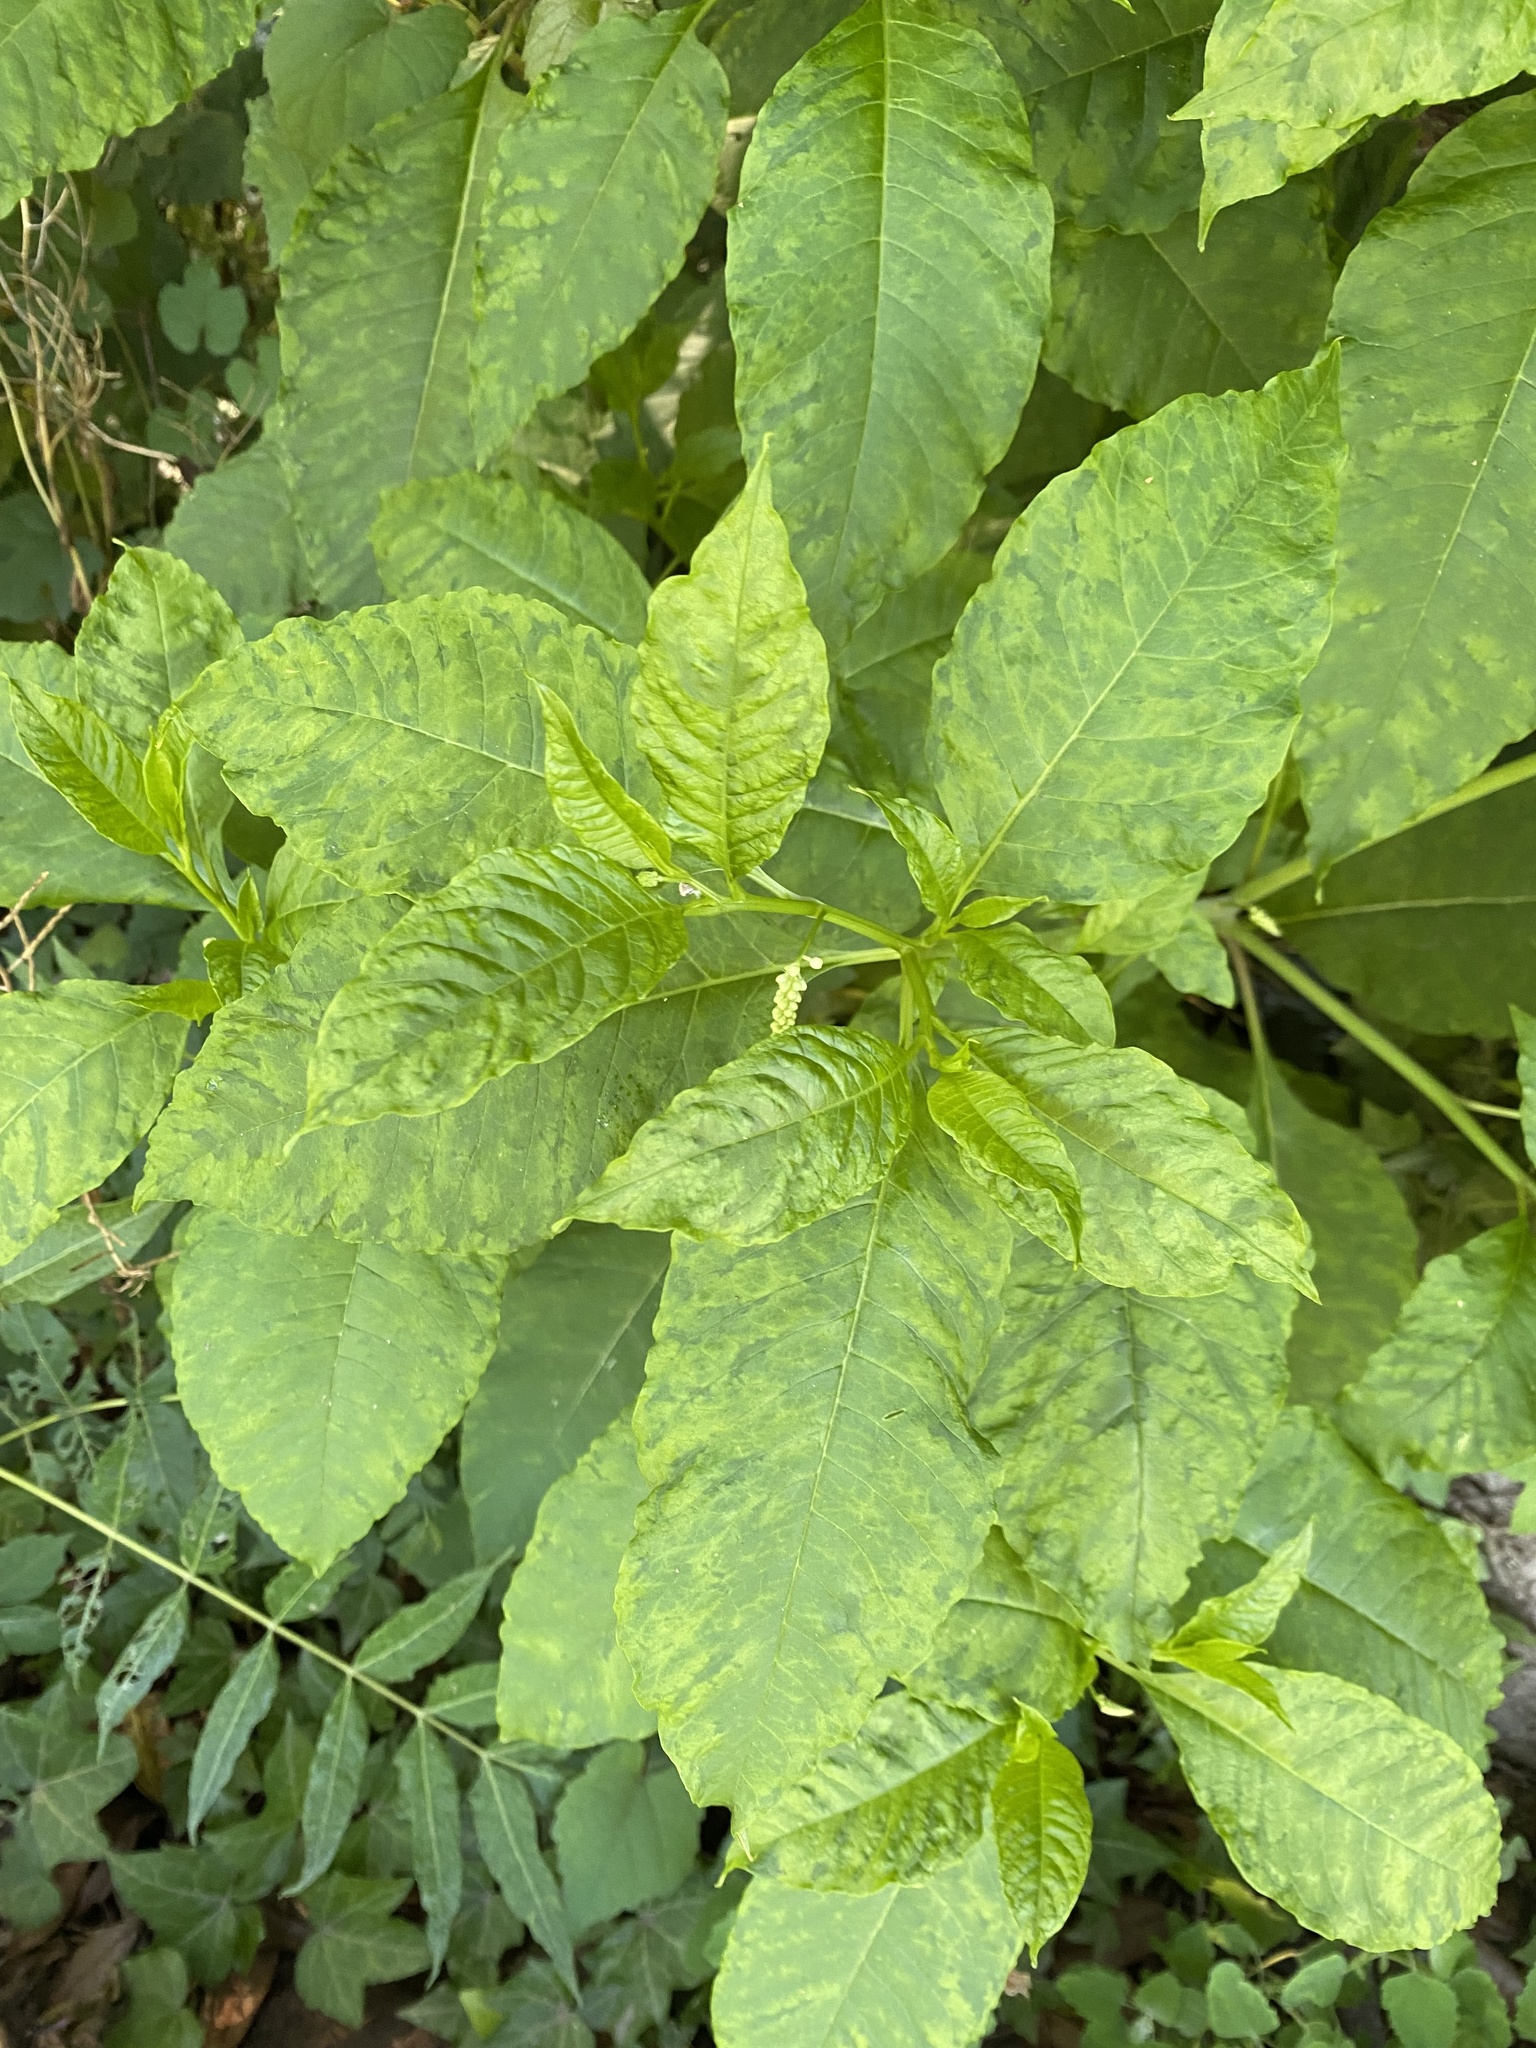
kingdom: Viruses
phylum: Pisuviricota
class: Stelpaviricetes
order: Patatavirales
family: Potyviridae
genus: Potyvirus
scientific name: Potyvirus Pokeweed mosaic virus
